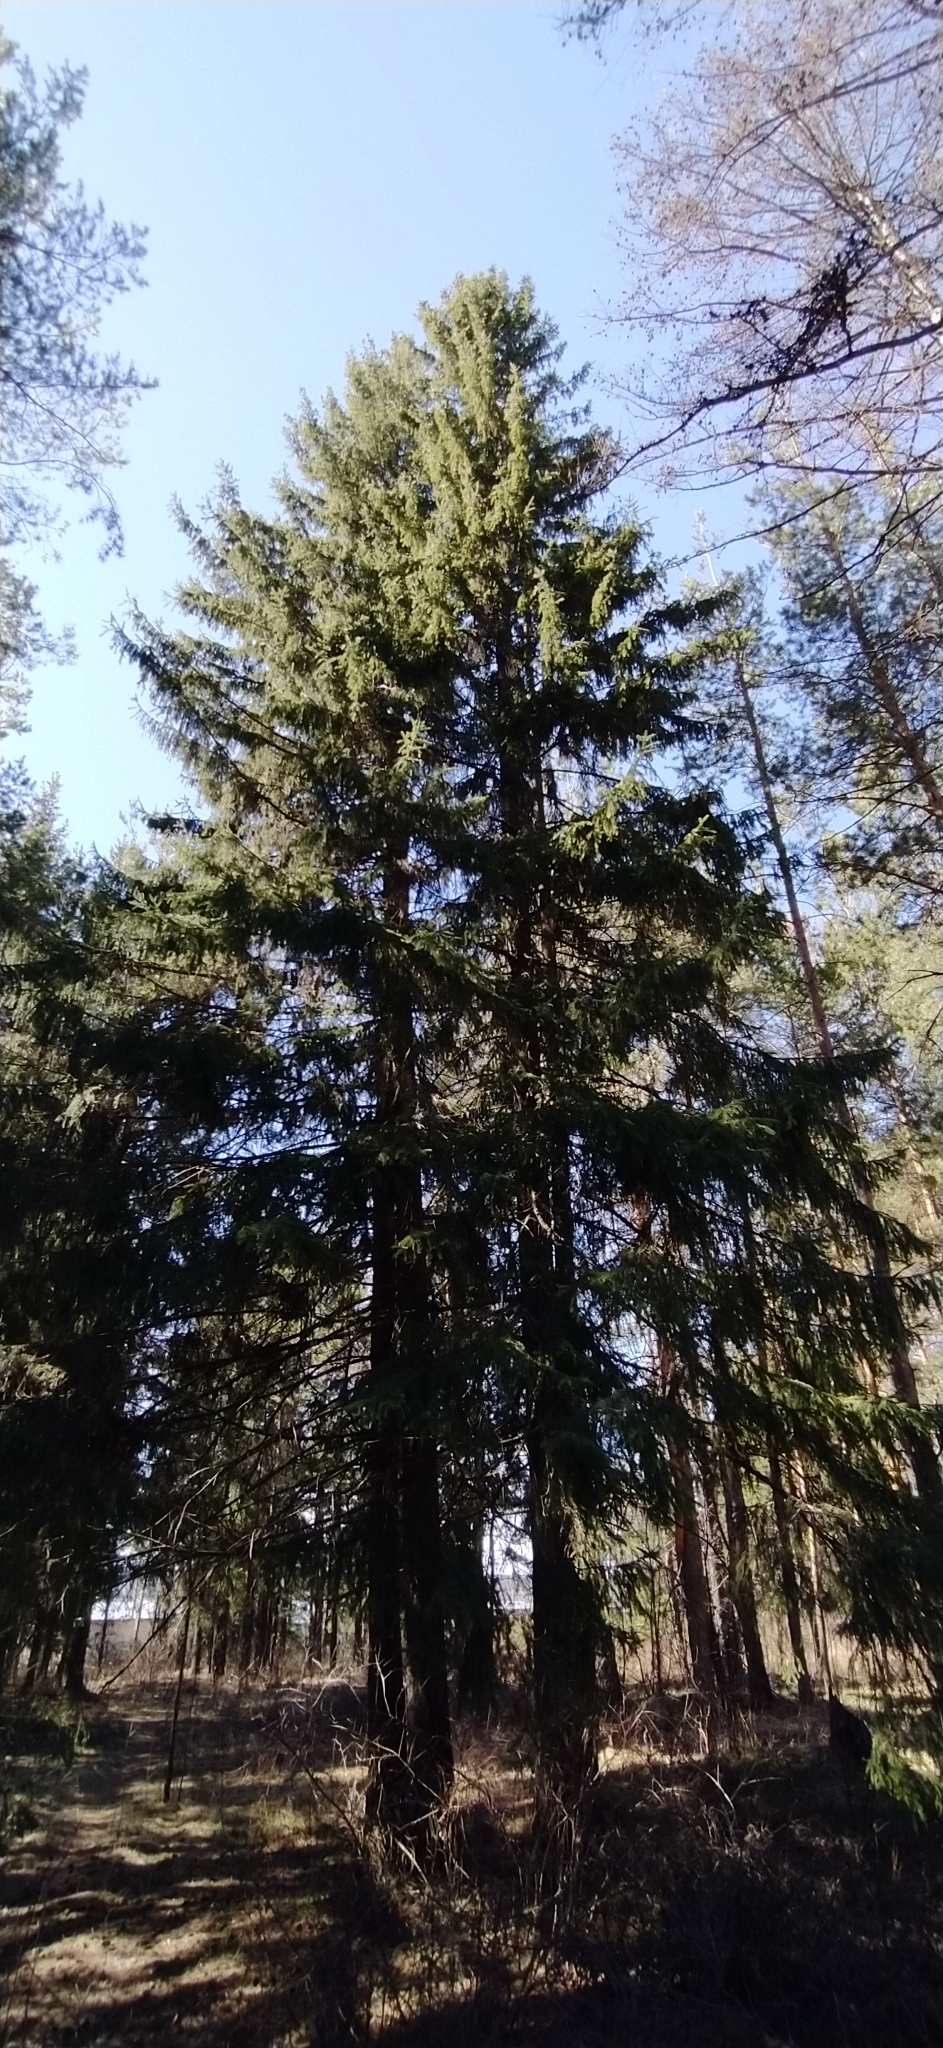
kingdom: Plantae
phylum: Tracheophyta
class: Pinopsida
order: Pinales
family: Pinaceae
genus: Picea
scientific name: Picea obovata
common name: Siberian spruce
